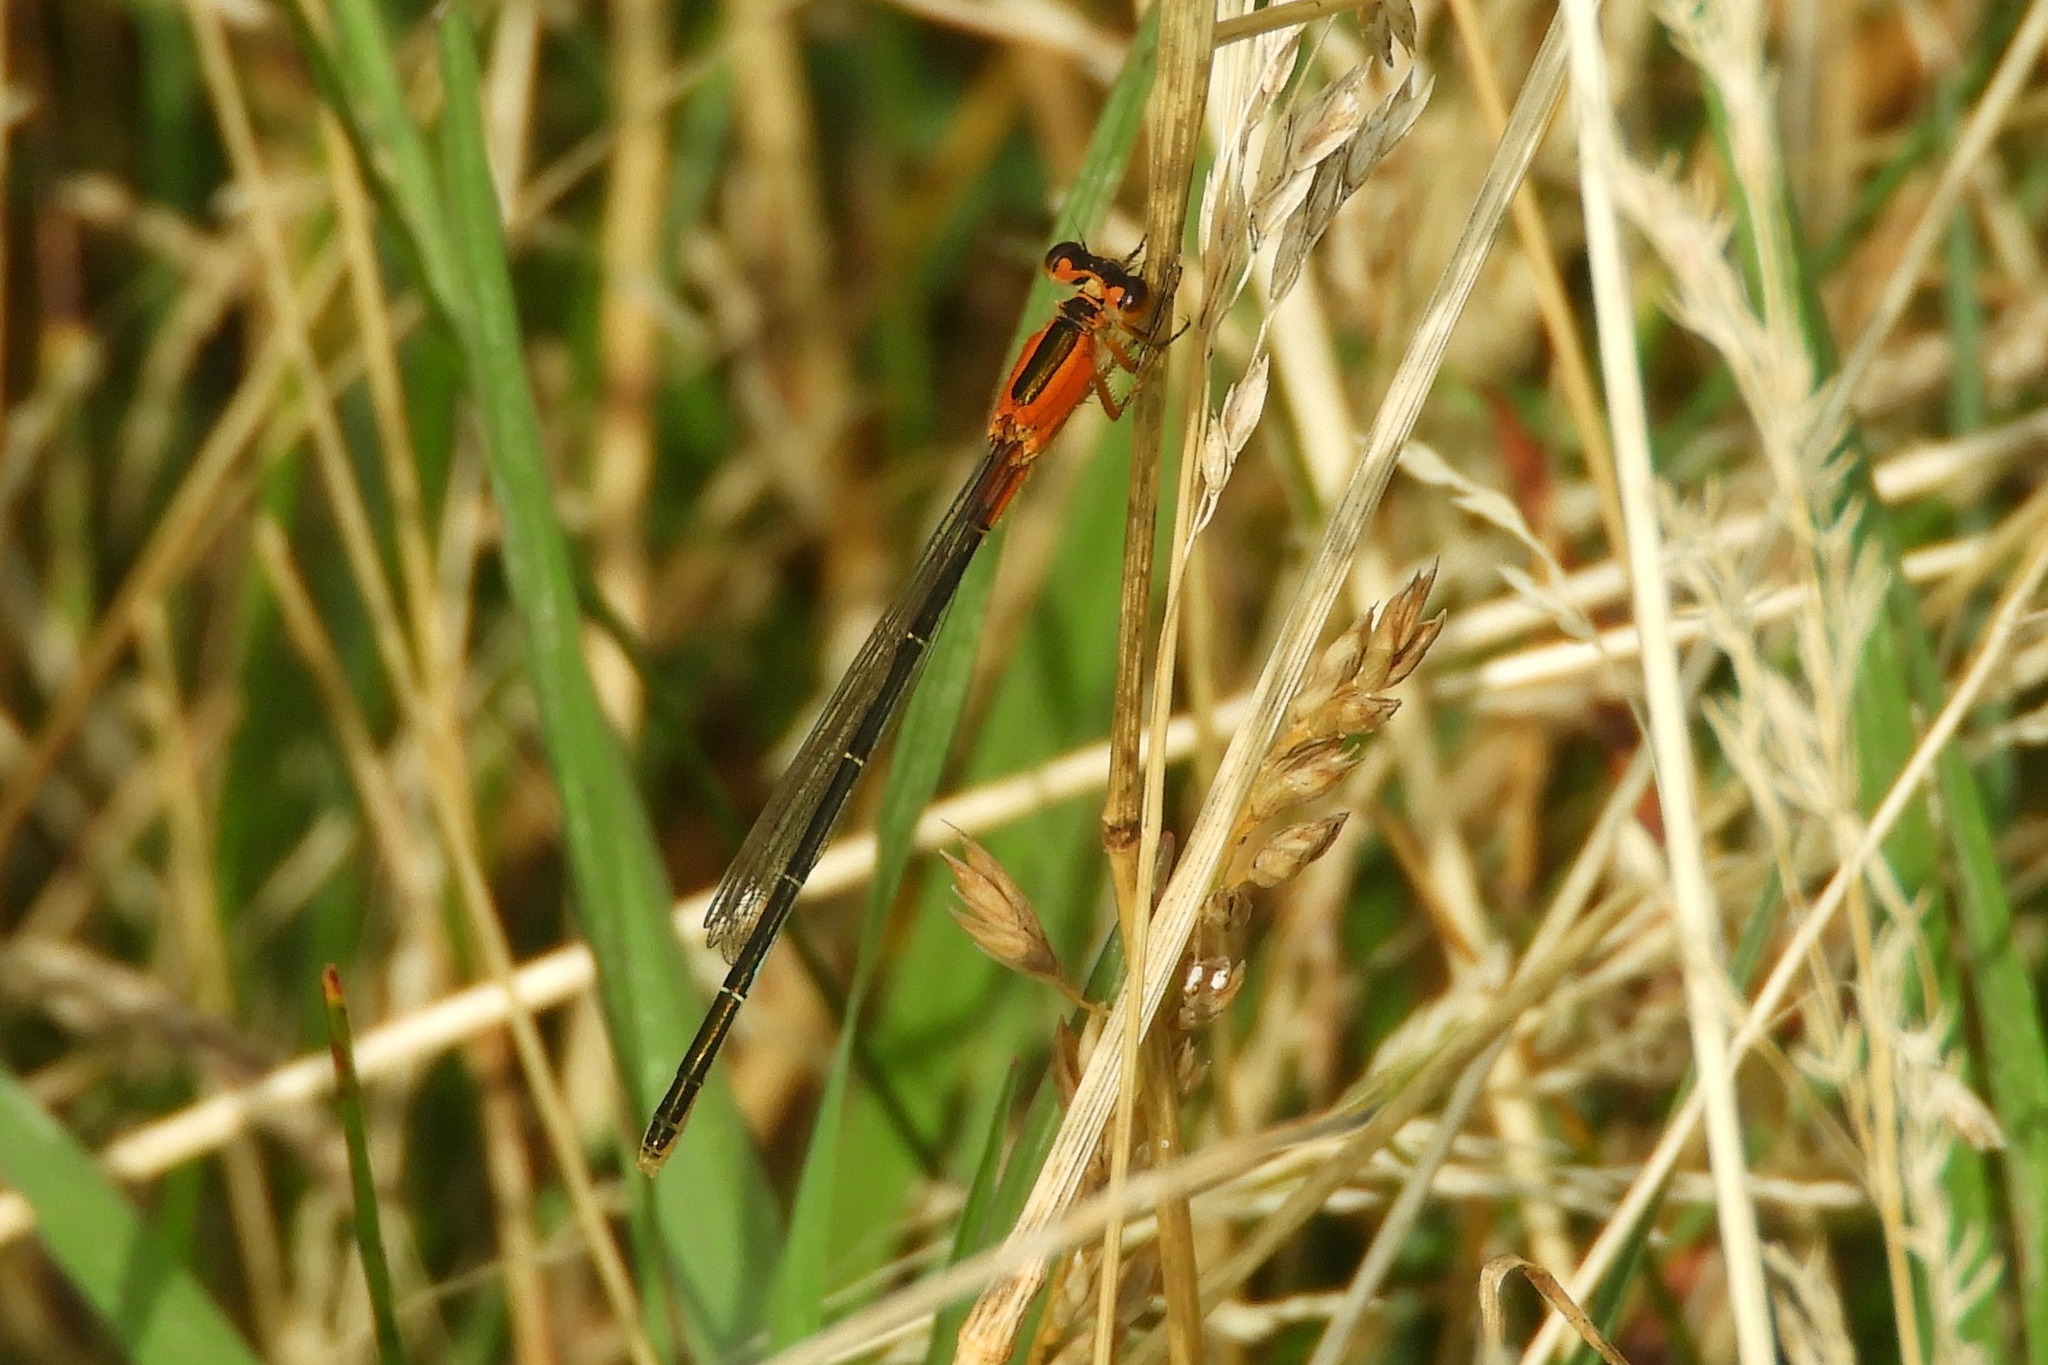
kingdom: Animalia
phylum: Arthropoda
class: Insecta
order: Odonata
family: Coenagrionidae
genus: Ischnura
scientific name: Ischnura ramburii
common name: Rambur's forktail
